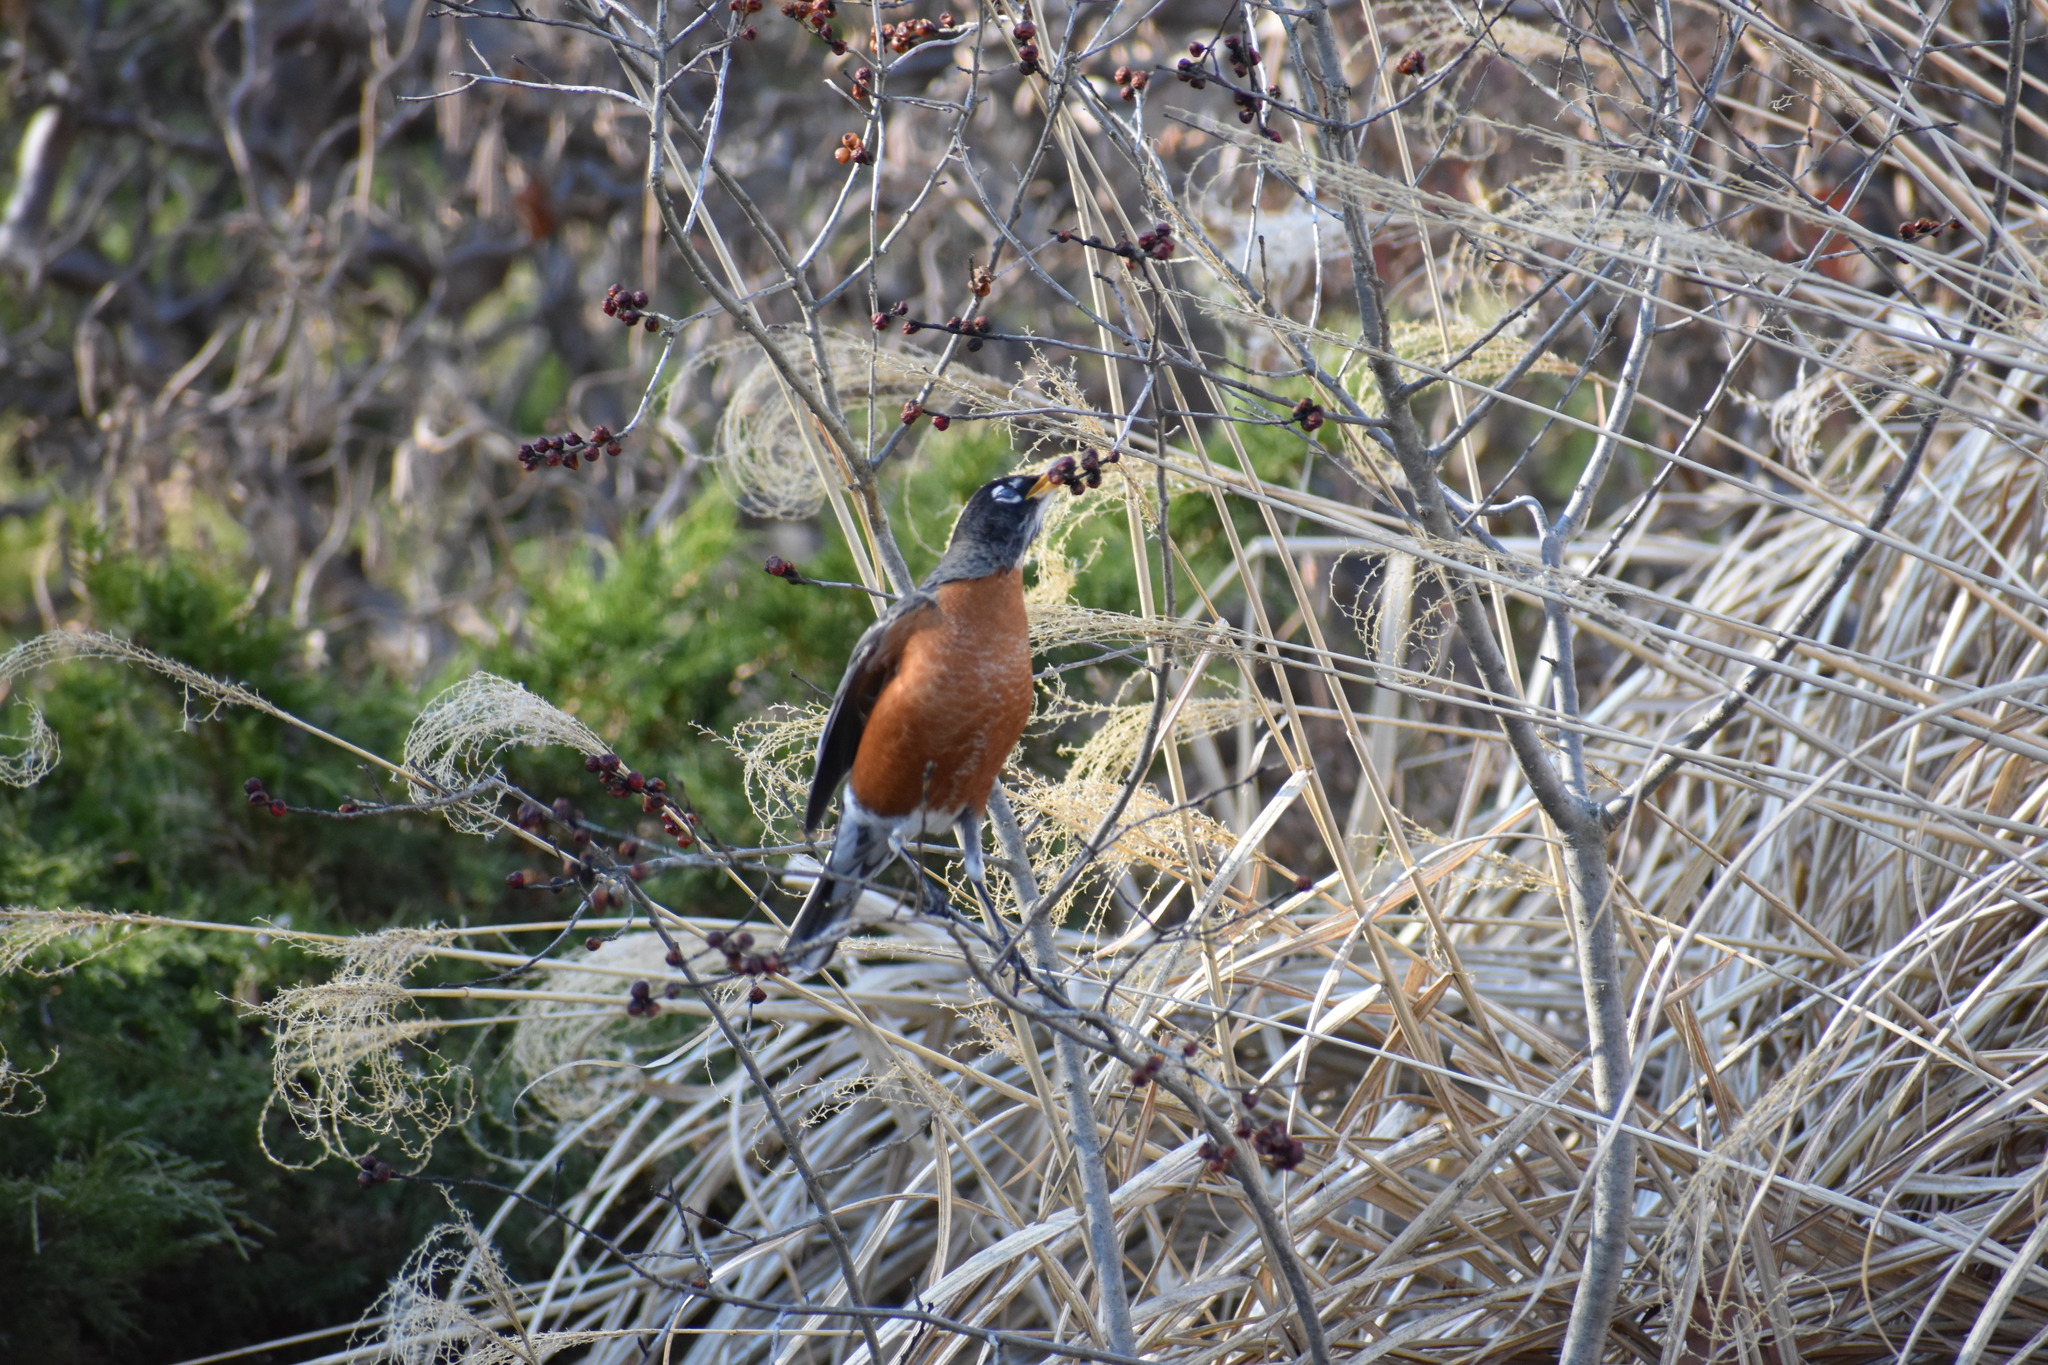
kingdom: Animalia
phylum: Chordata
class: Aves
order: Passeriformes
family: Turdidae
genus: Turdus
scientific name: Turdus migratorius
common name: American robin
